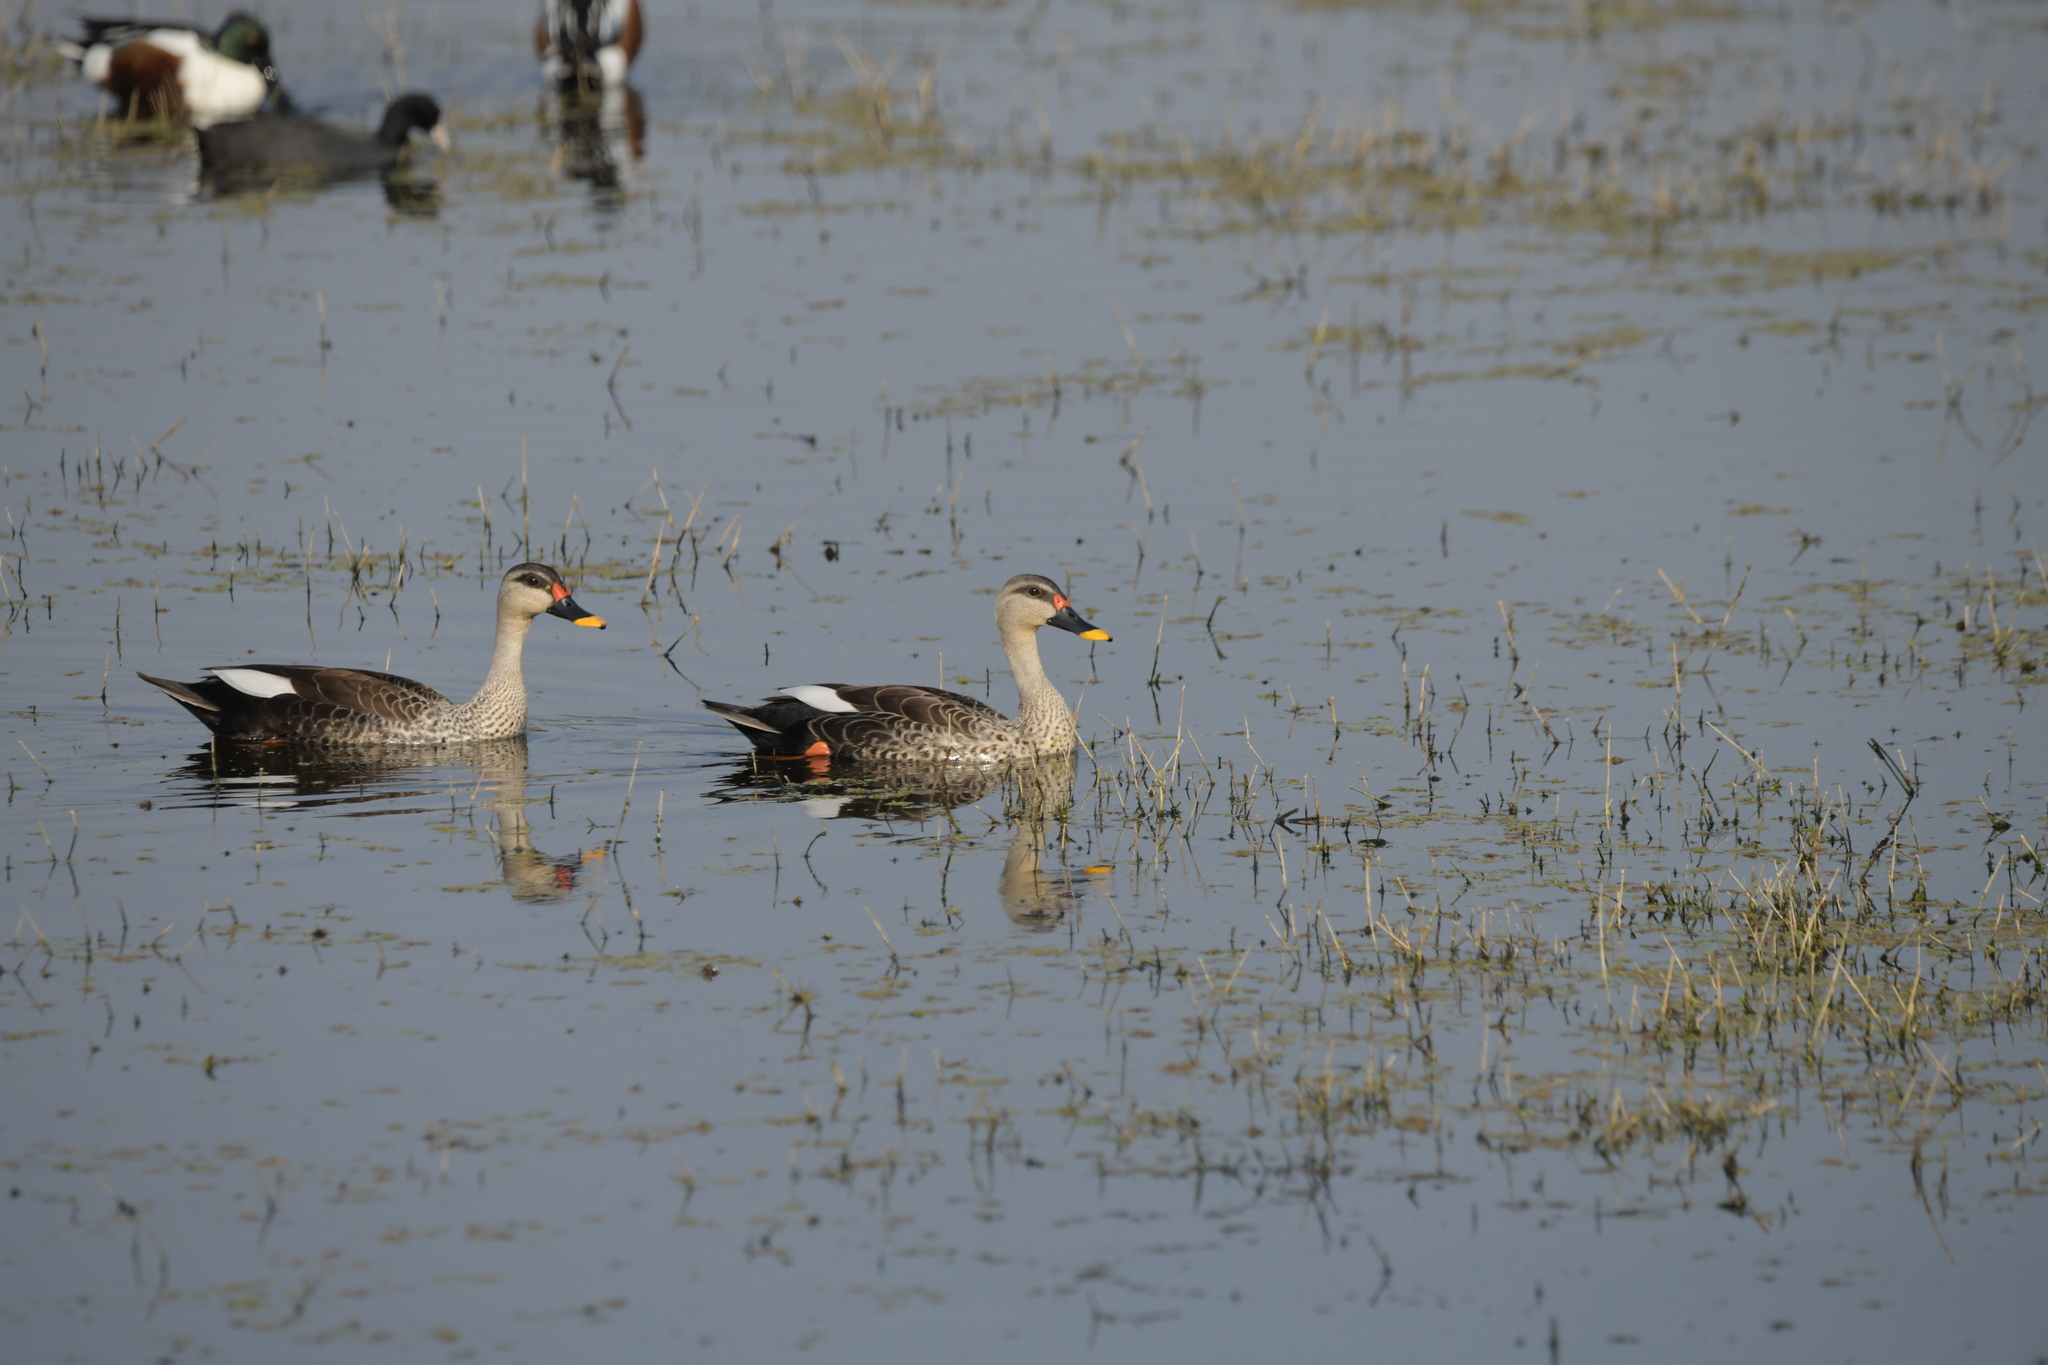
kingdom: Animalia
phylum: Chordata
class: Aves
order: Anseriformes
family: Anatidae
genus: Anas
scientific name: Anas poecilorhyncha
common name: Indian spot-billed duck
